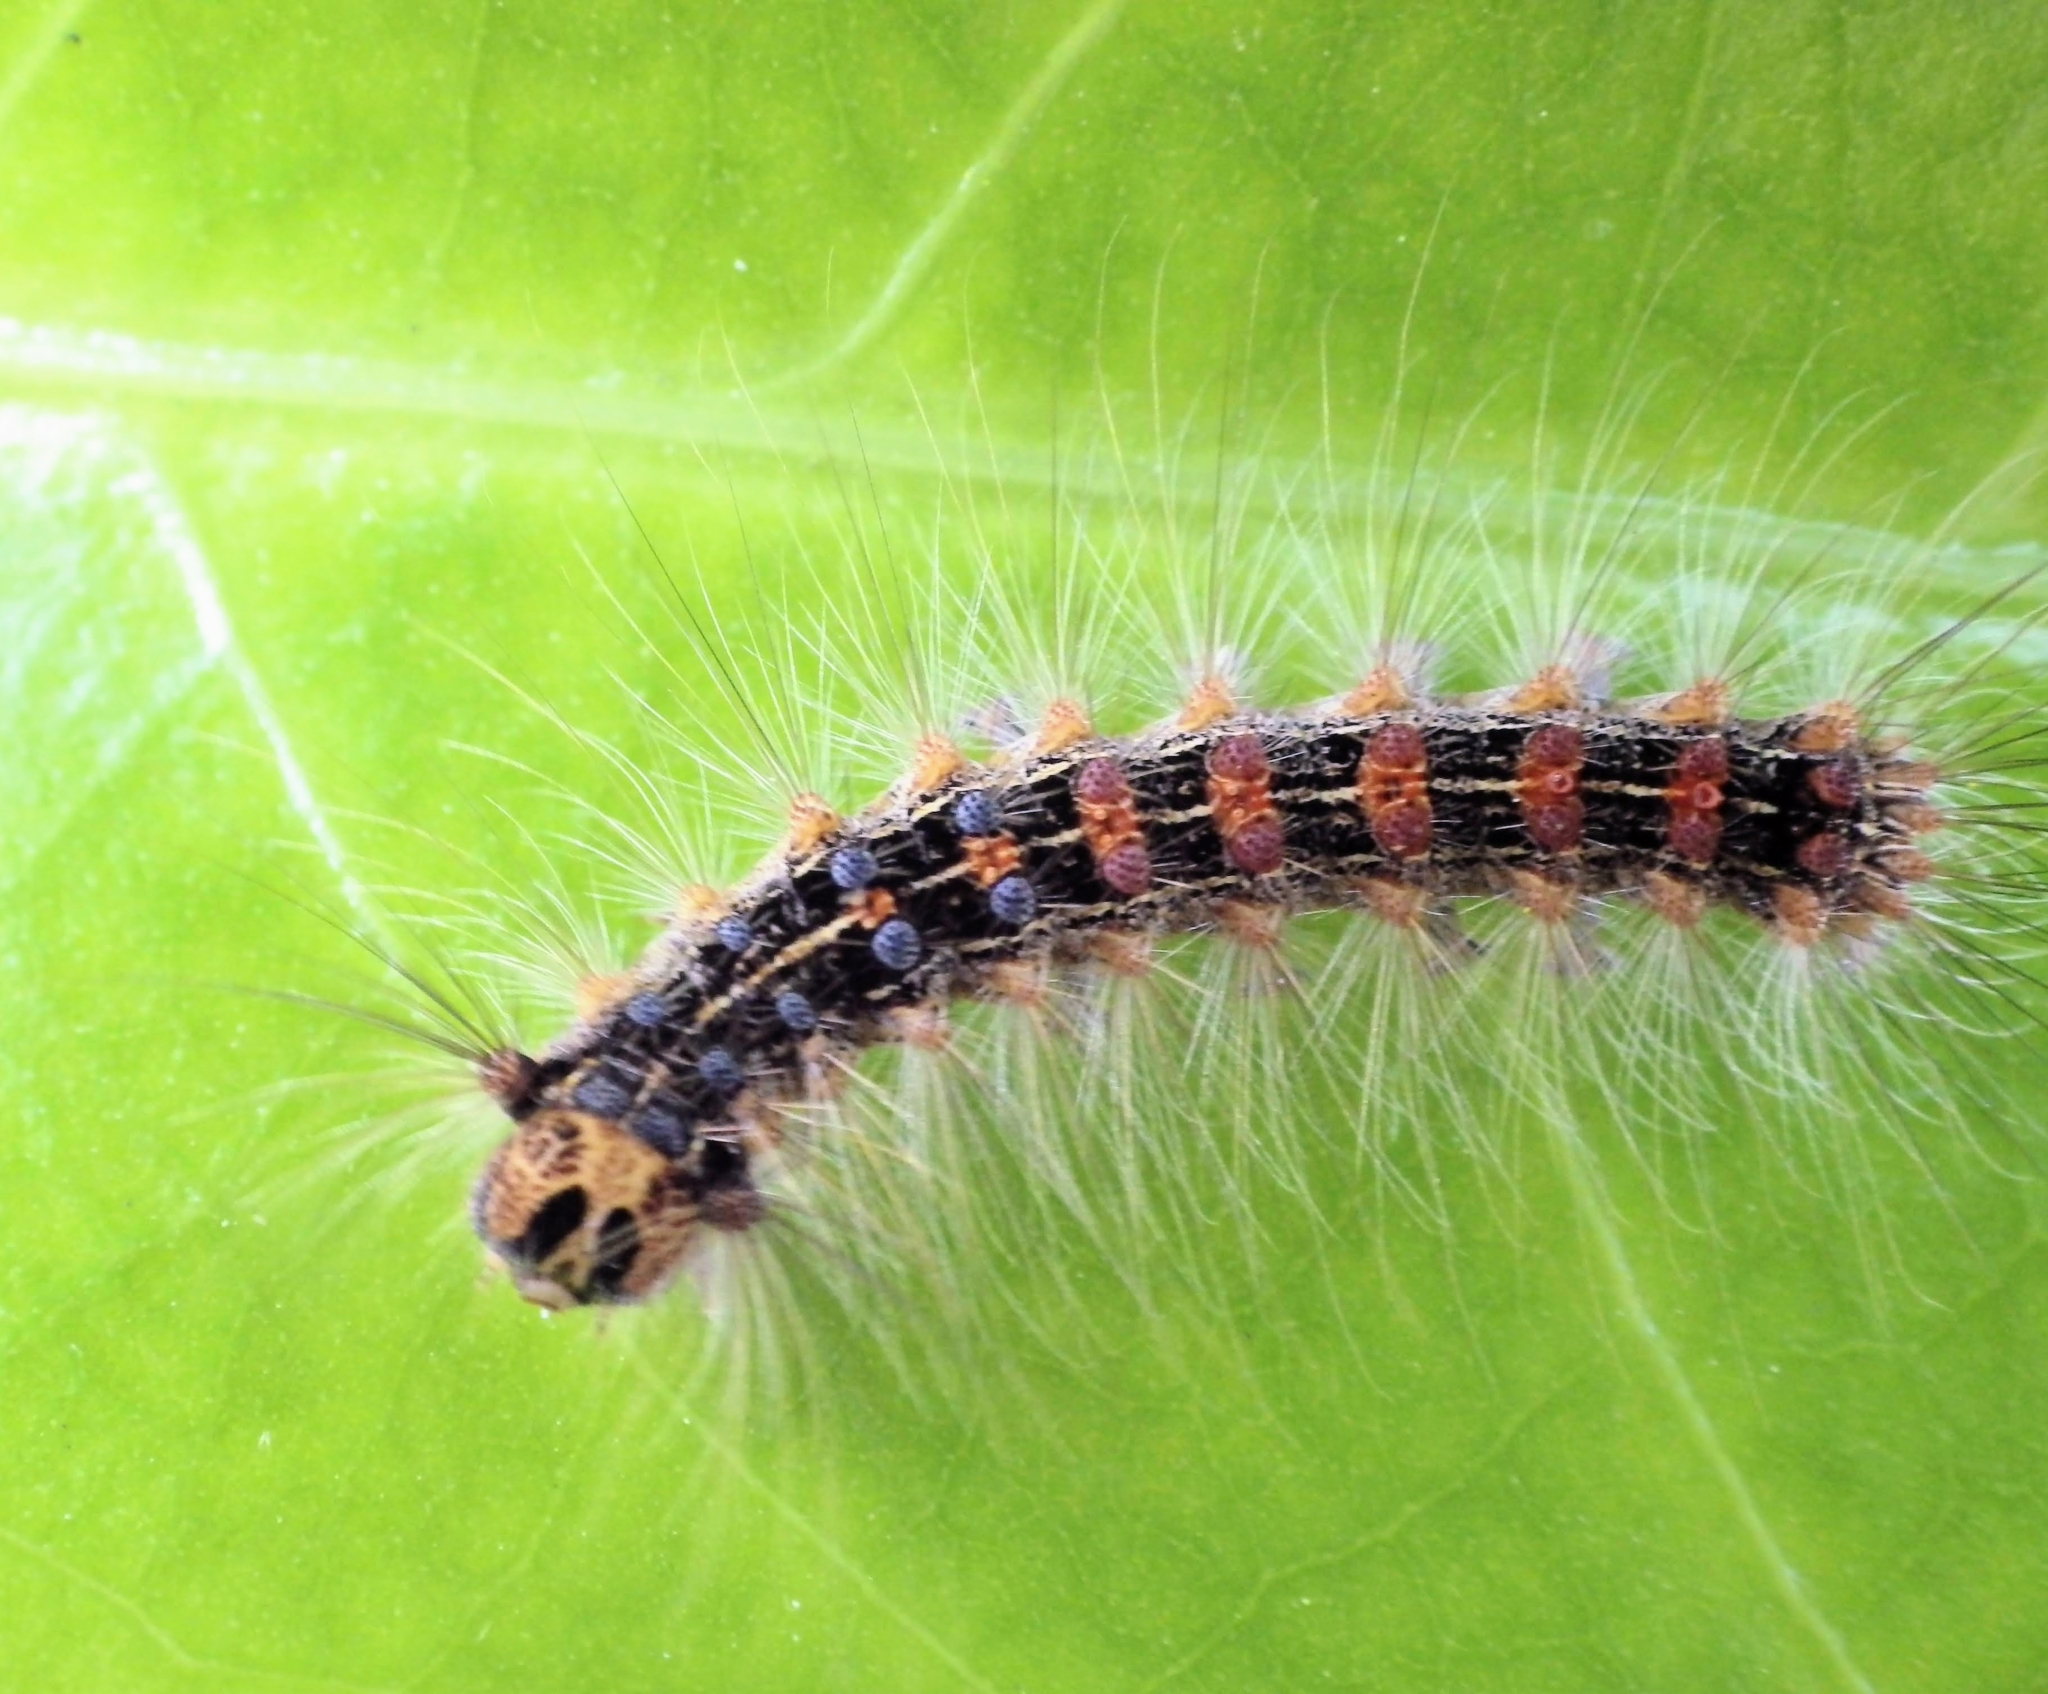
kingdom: Animalia
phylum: Arthropoda
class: Insecta
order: Lepidoptera
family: Erebidae
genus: Lymantria
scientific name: Lymantria dispar
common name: Gypsy moth
